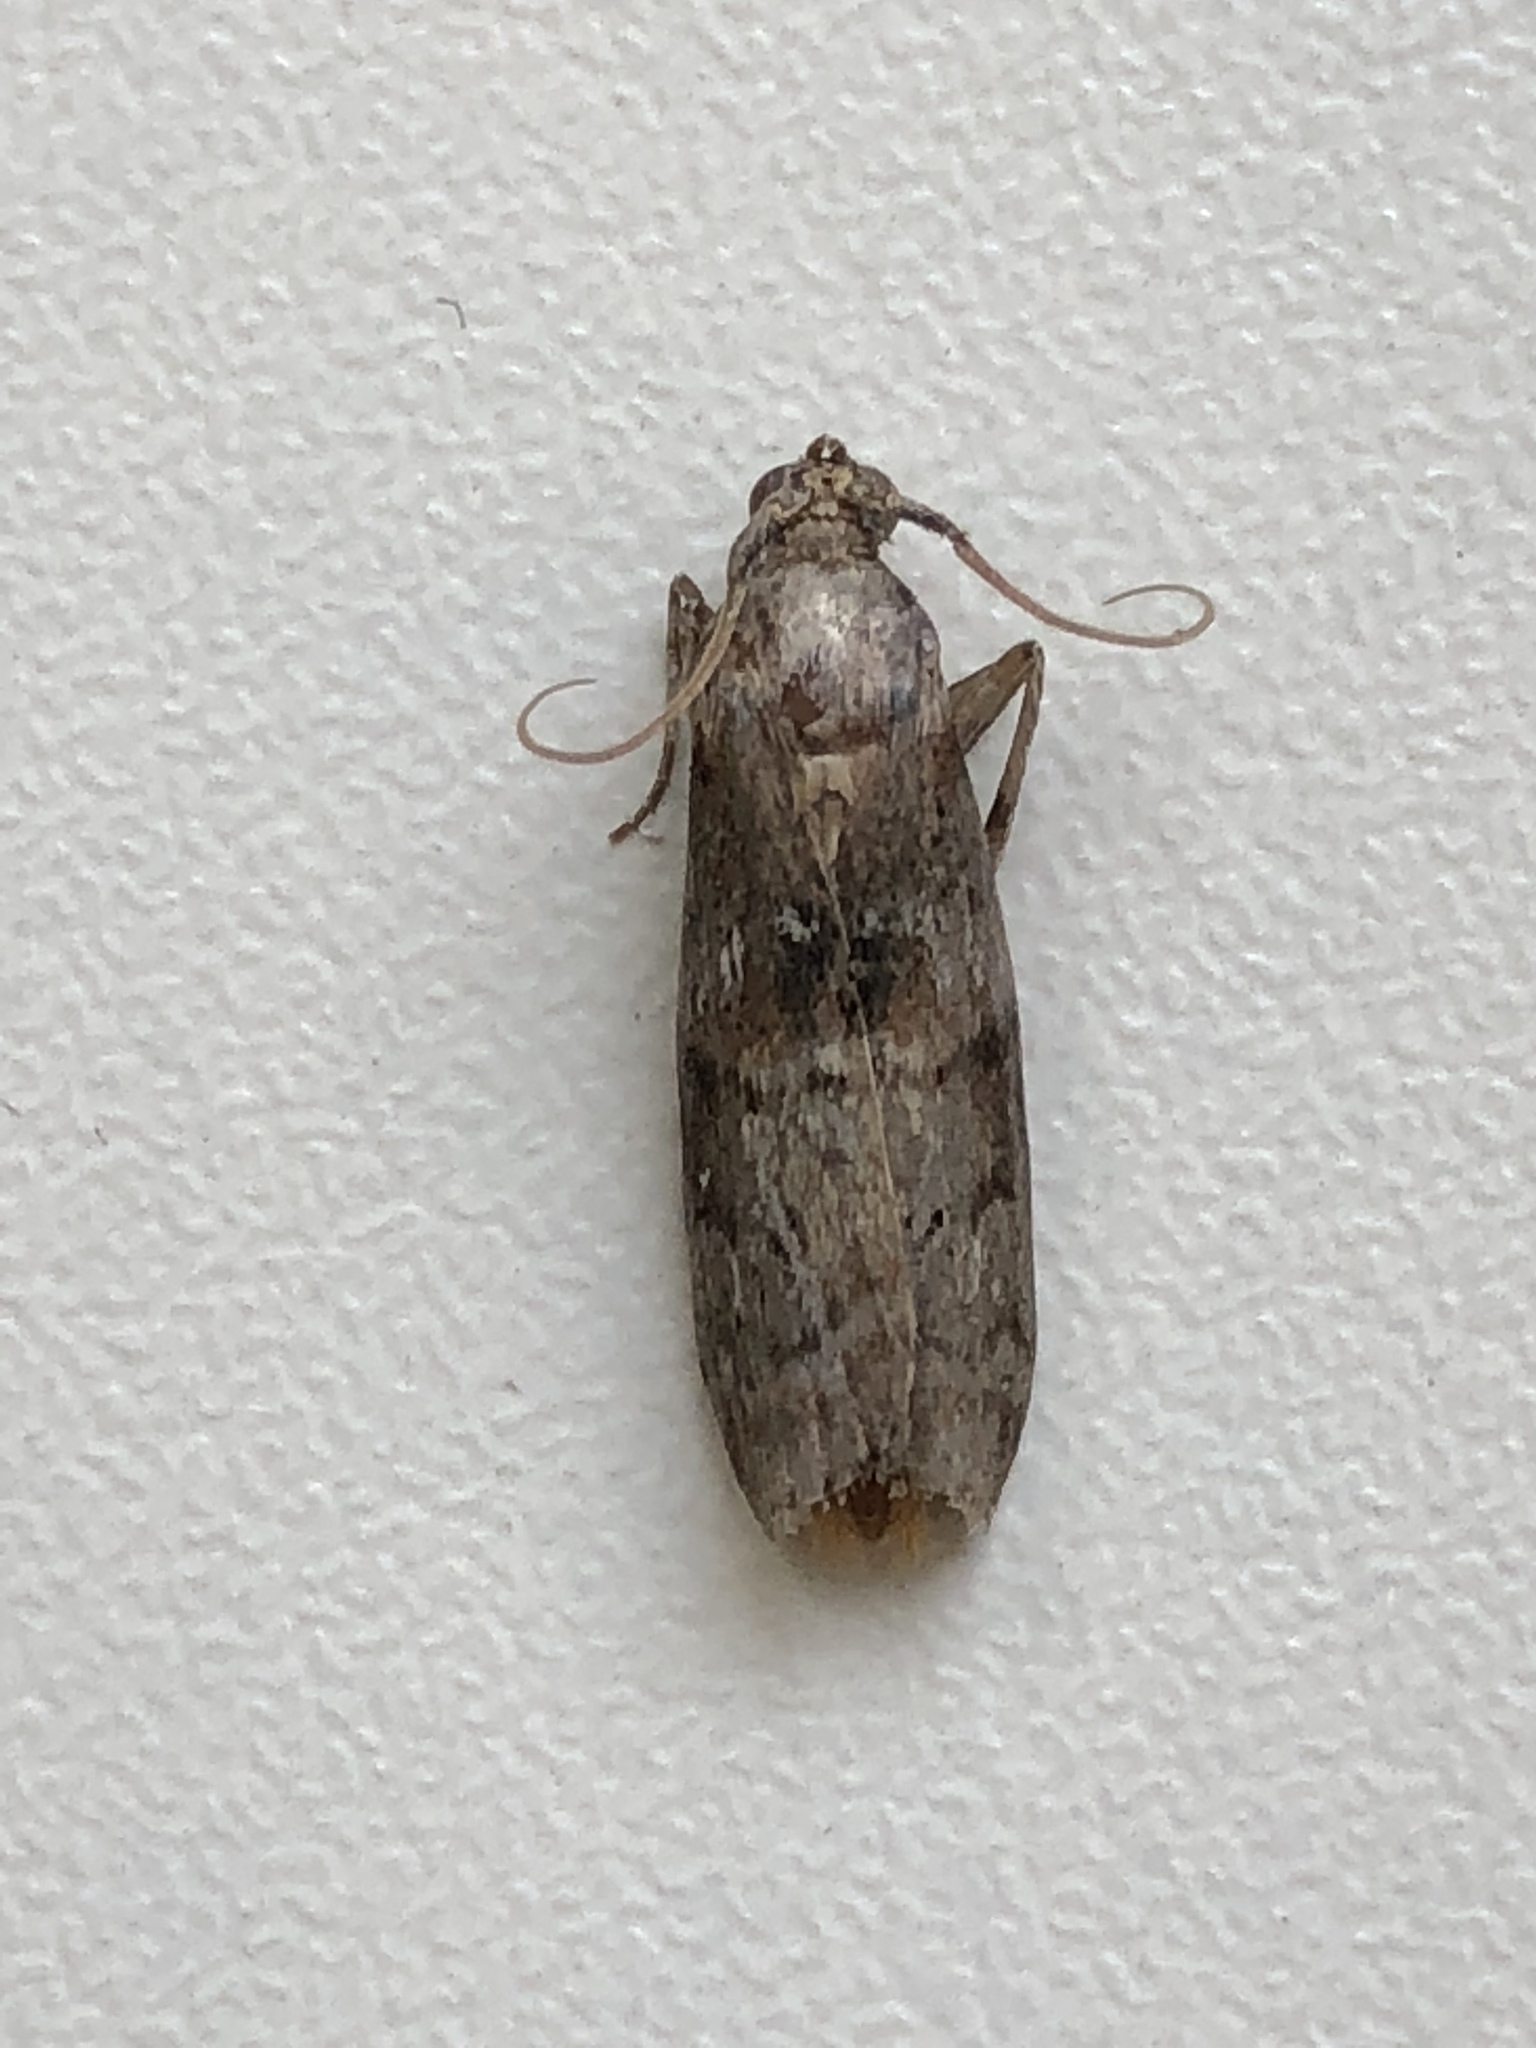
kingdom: Animalia
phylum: Arthropoda
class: Insecta
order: Lepidoptera
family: Pyralidae
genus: Phycita
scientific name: Phycita roborella
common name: Dotted oak knot-horn
